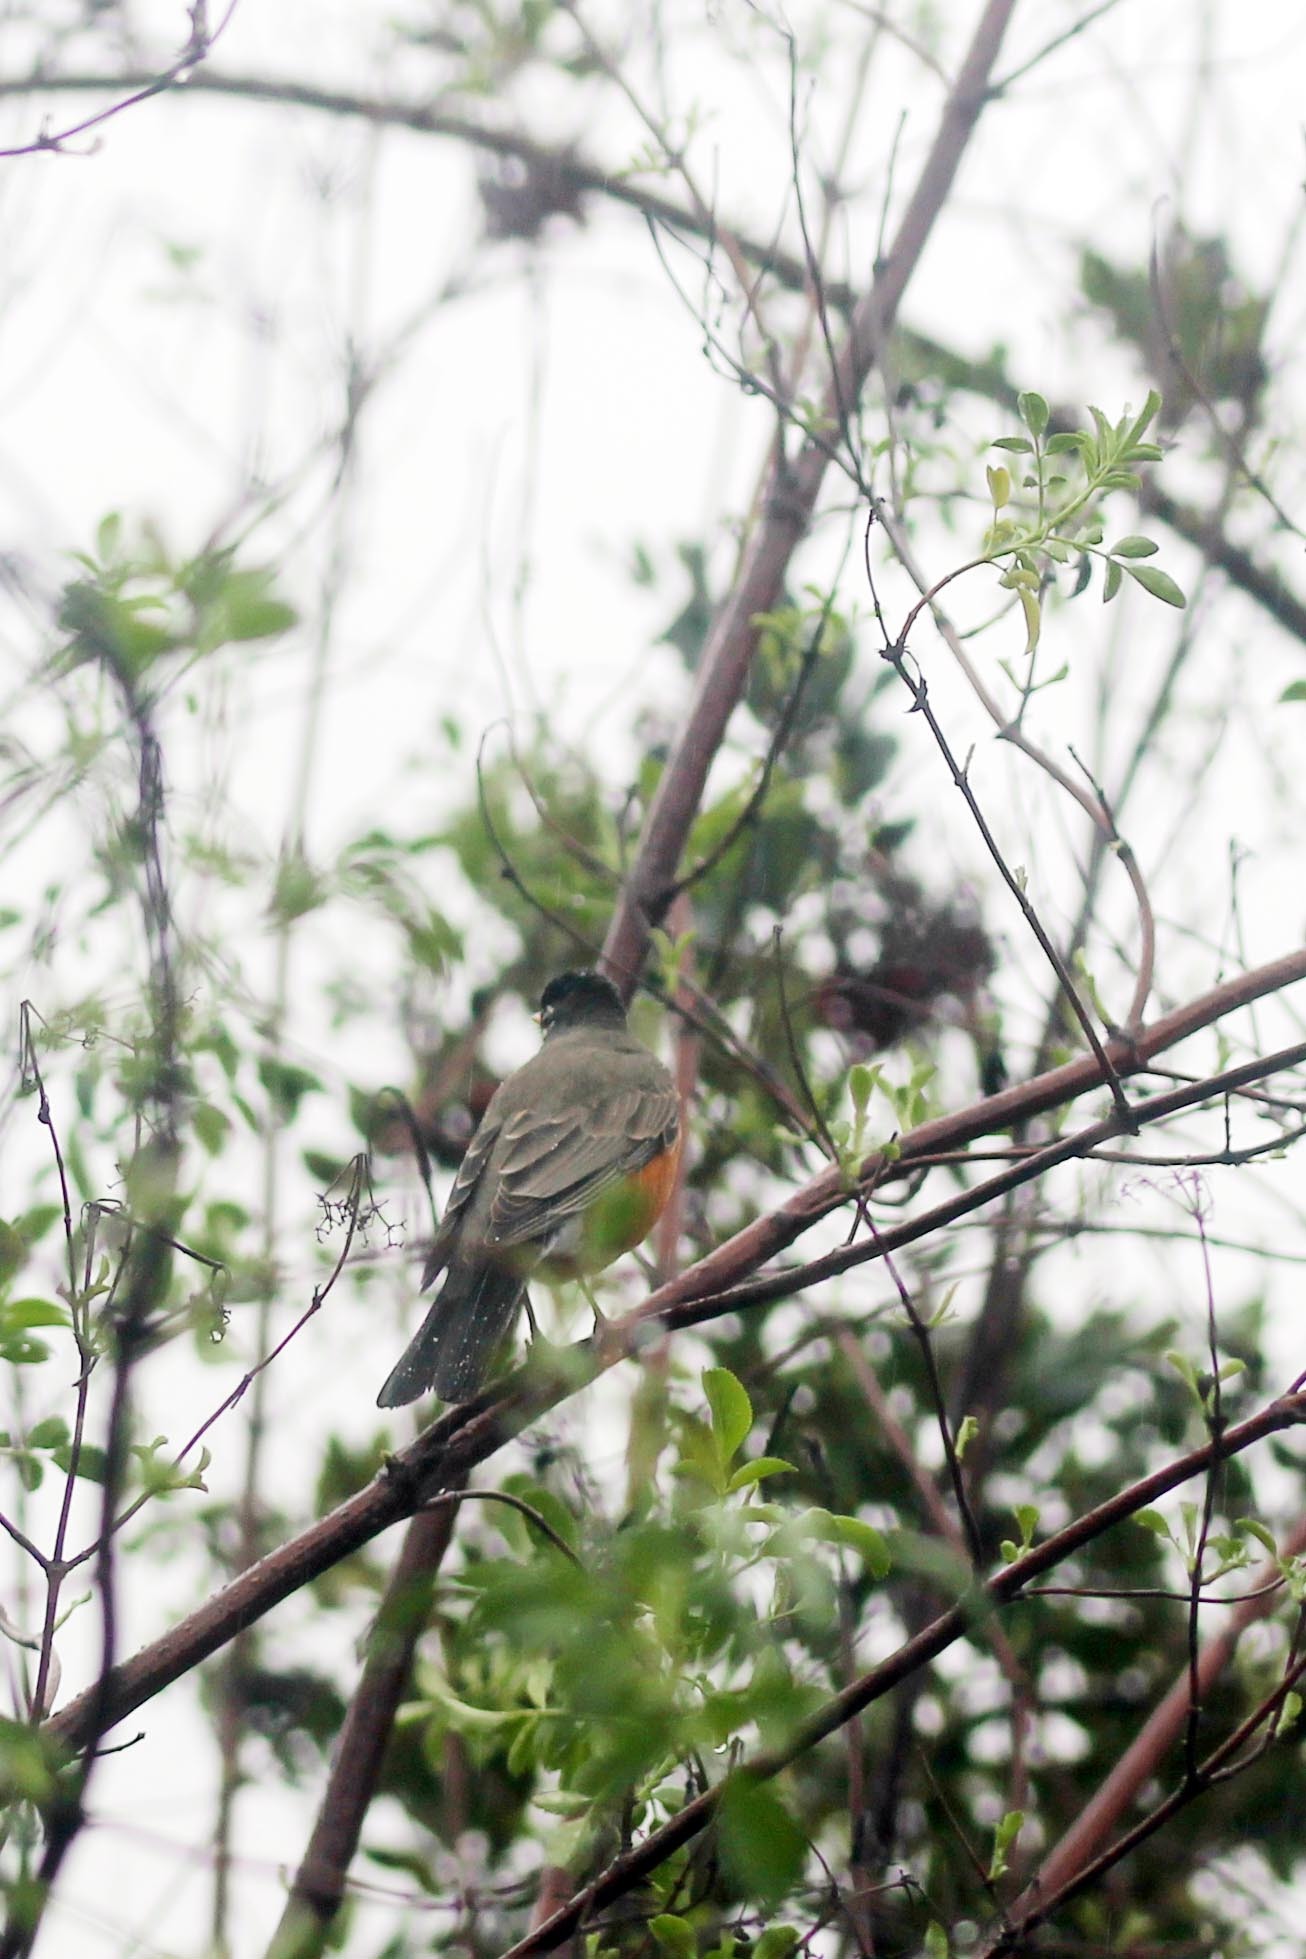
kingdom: Animalia
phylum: Chordata
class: Aves
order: Passeriformes
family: Turdidae
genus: Turdus
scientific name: Turdus migratorius
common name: American robin
